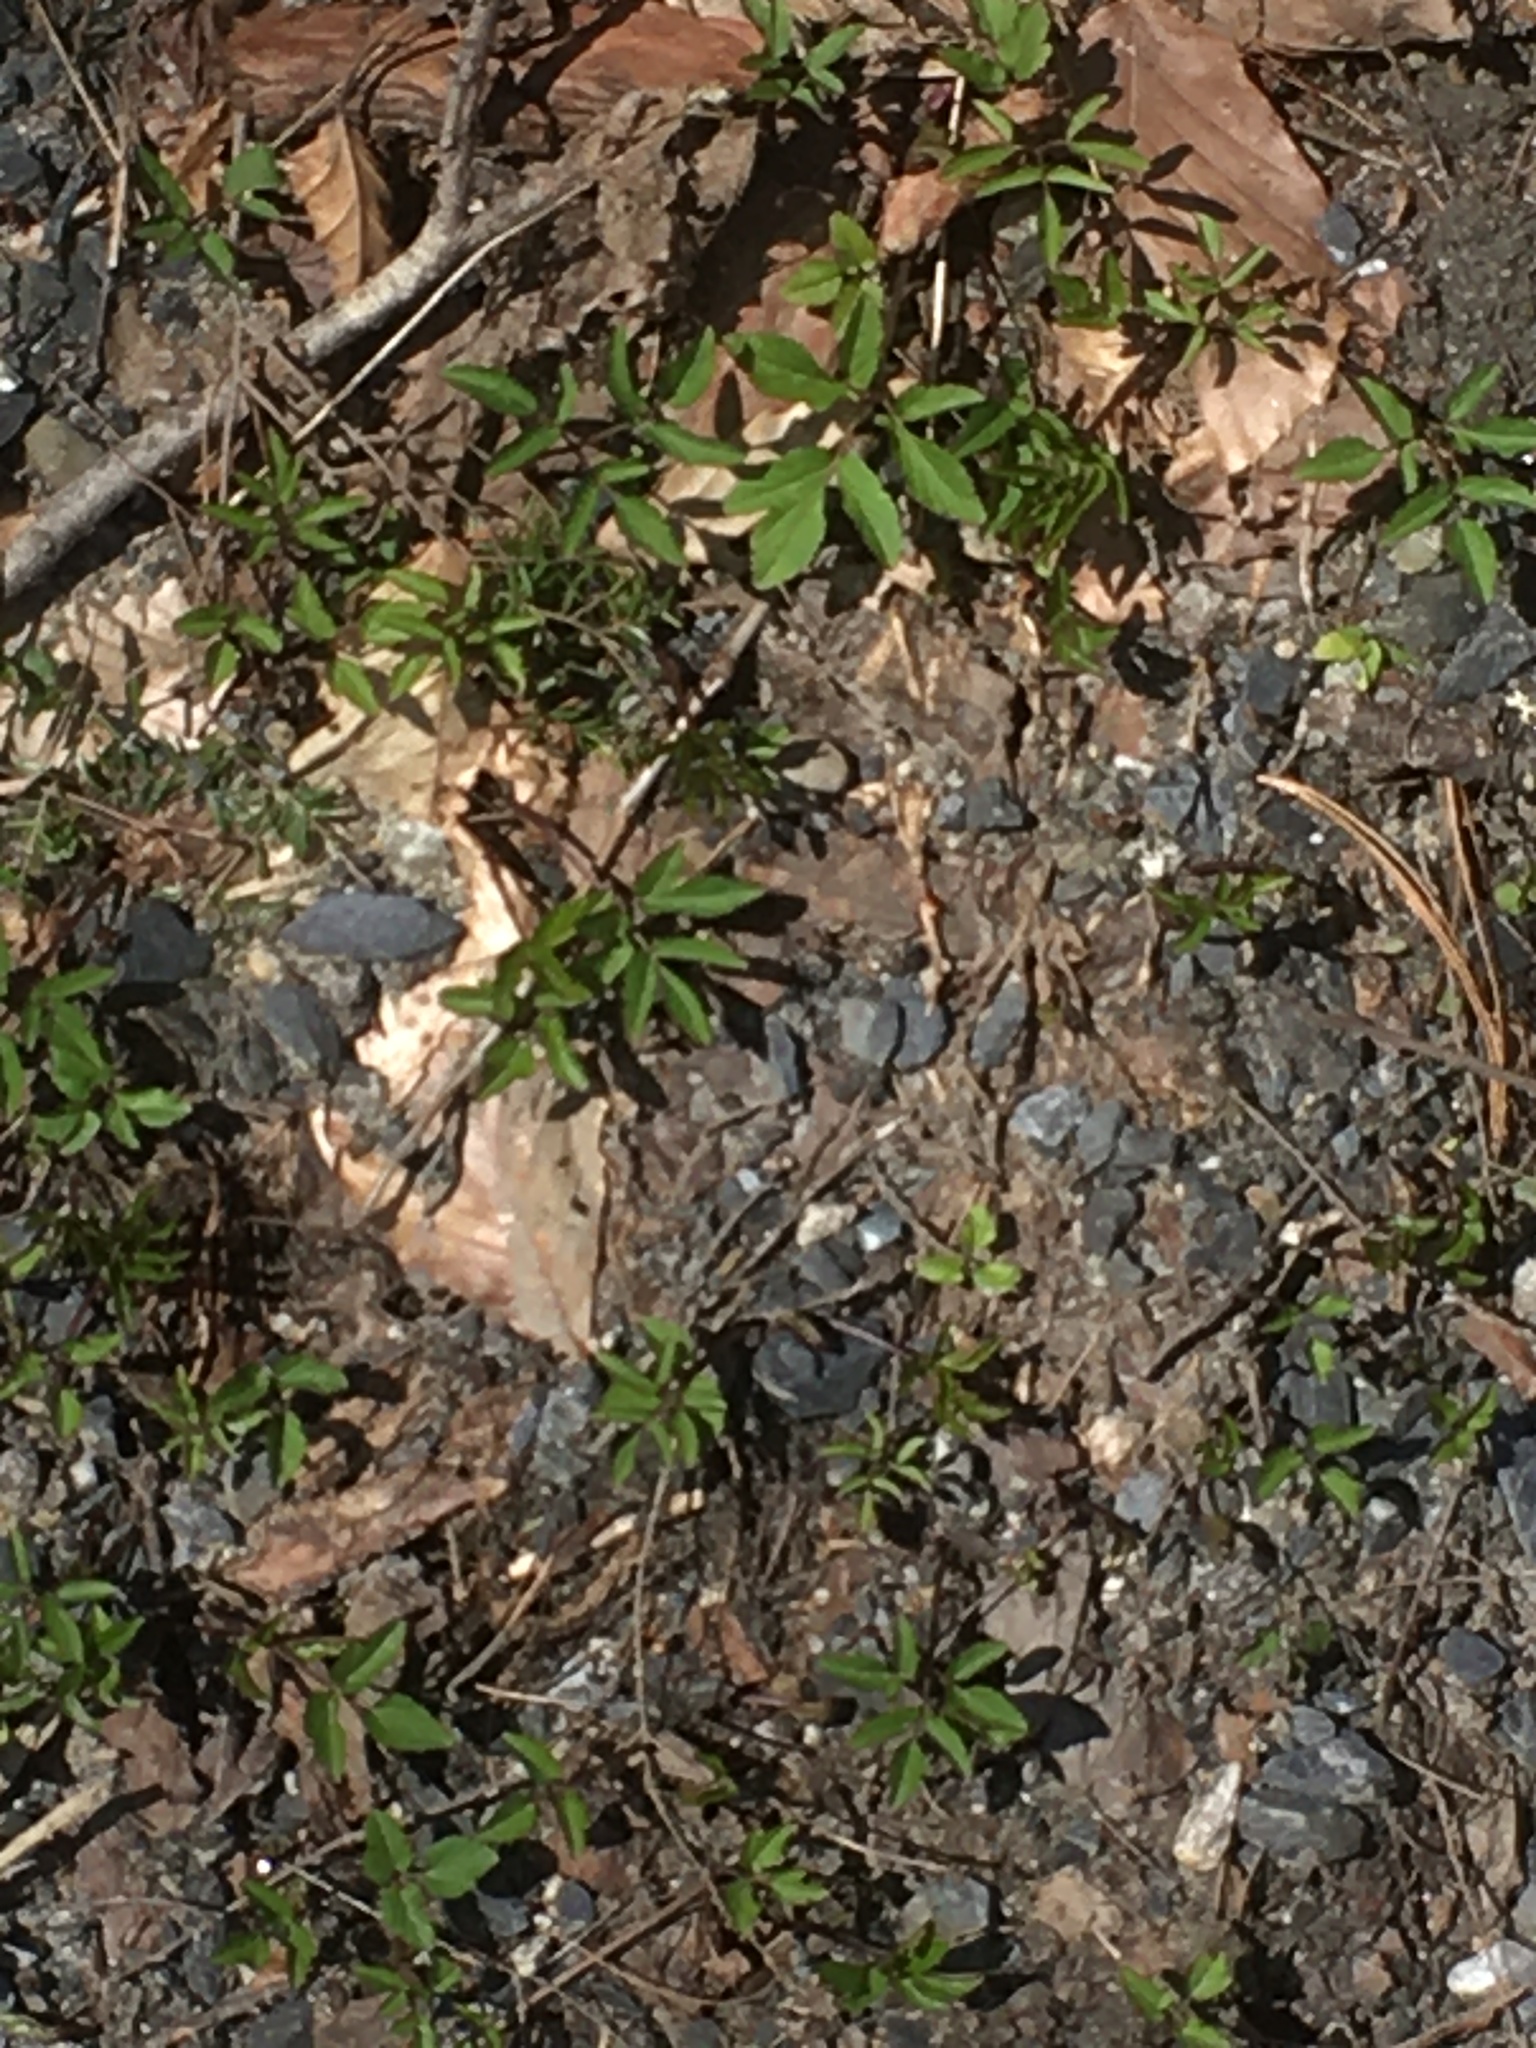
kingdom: Plantae
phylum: Tracheophyta
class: Magnoliopsida
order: Apiales
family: Apiaceae
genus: Aegopodium
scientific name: Aegopodium podagraria
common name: Ground-elder
